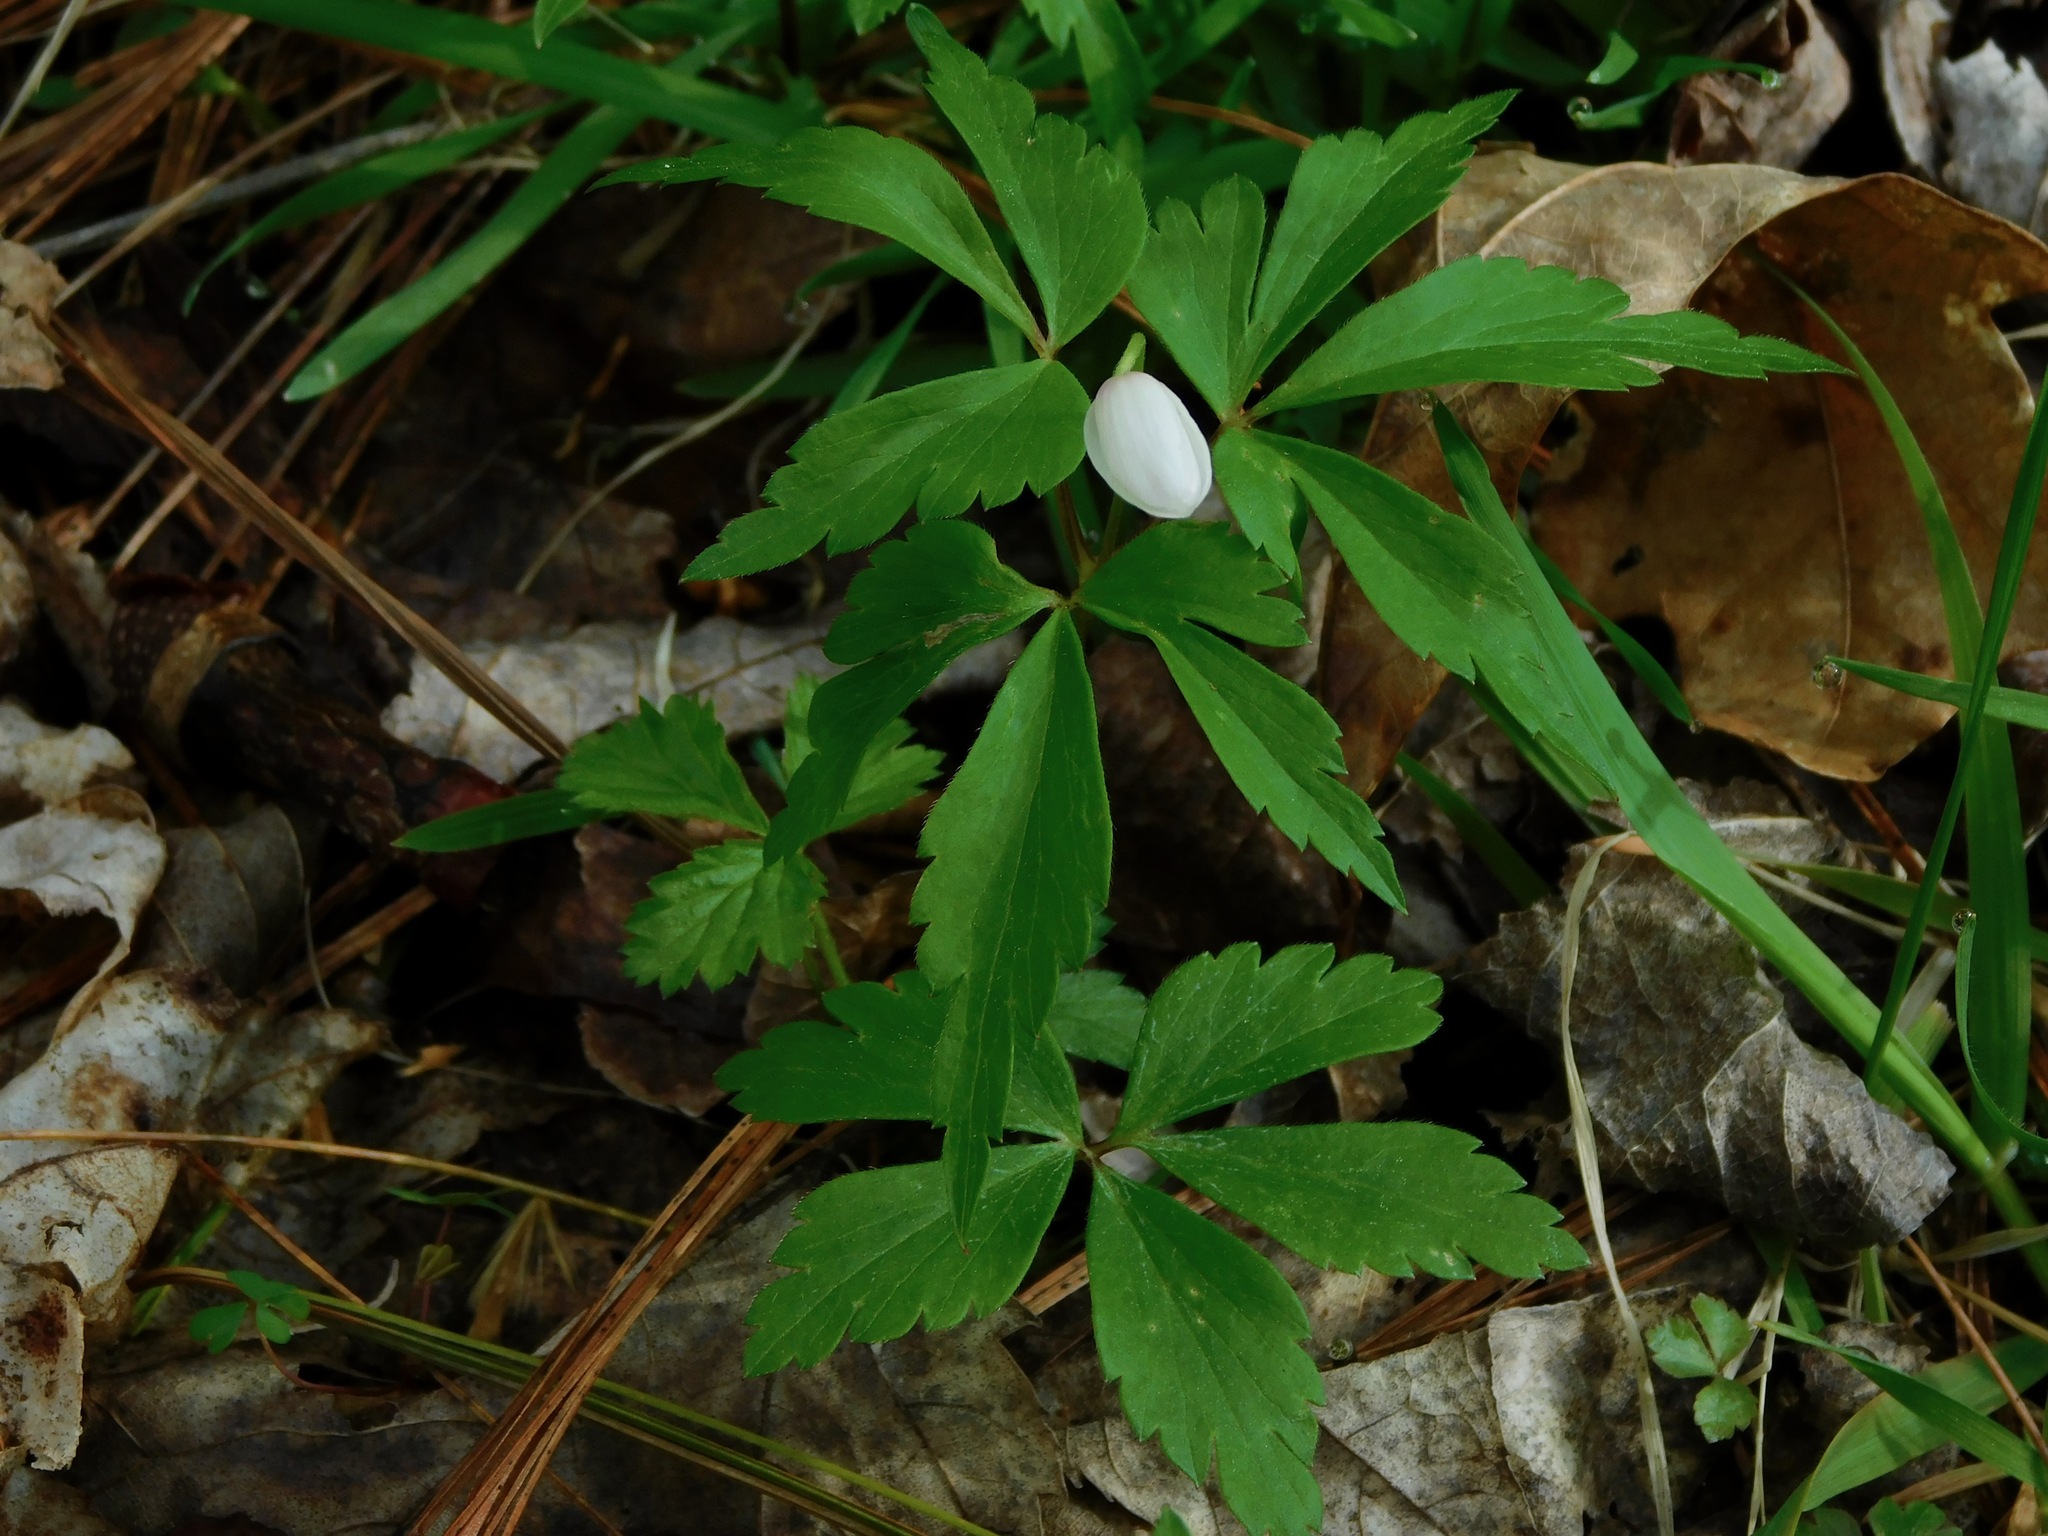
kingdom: Plantae
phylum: Tracheophyta
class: Magnoliopsida
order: Ranunculales
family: Ranunculaceae
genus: Anemone
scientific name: Anemone quinquefolia
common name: Wood anemone
